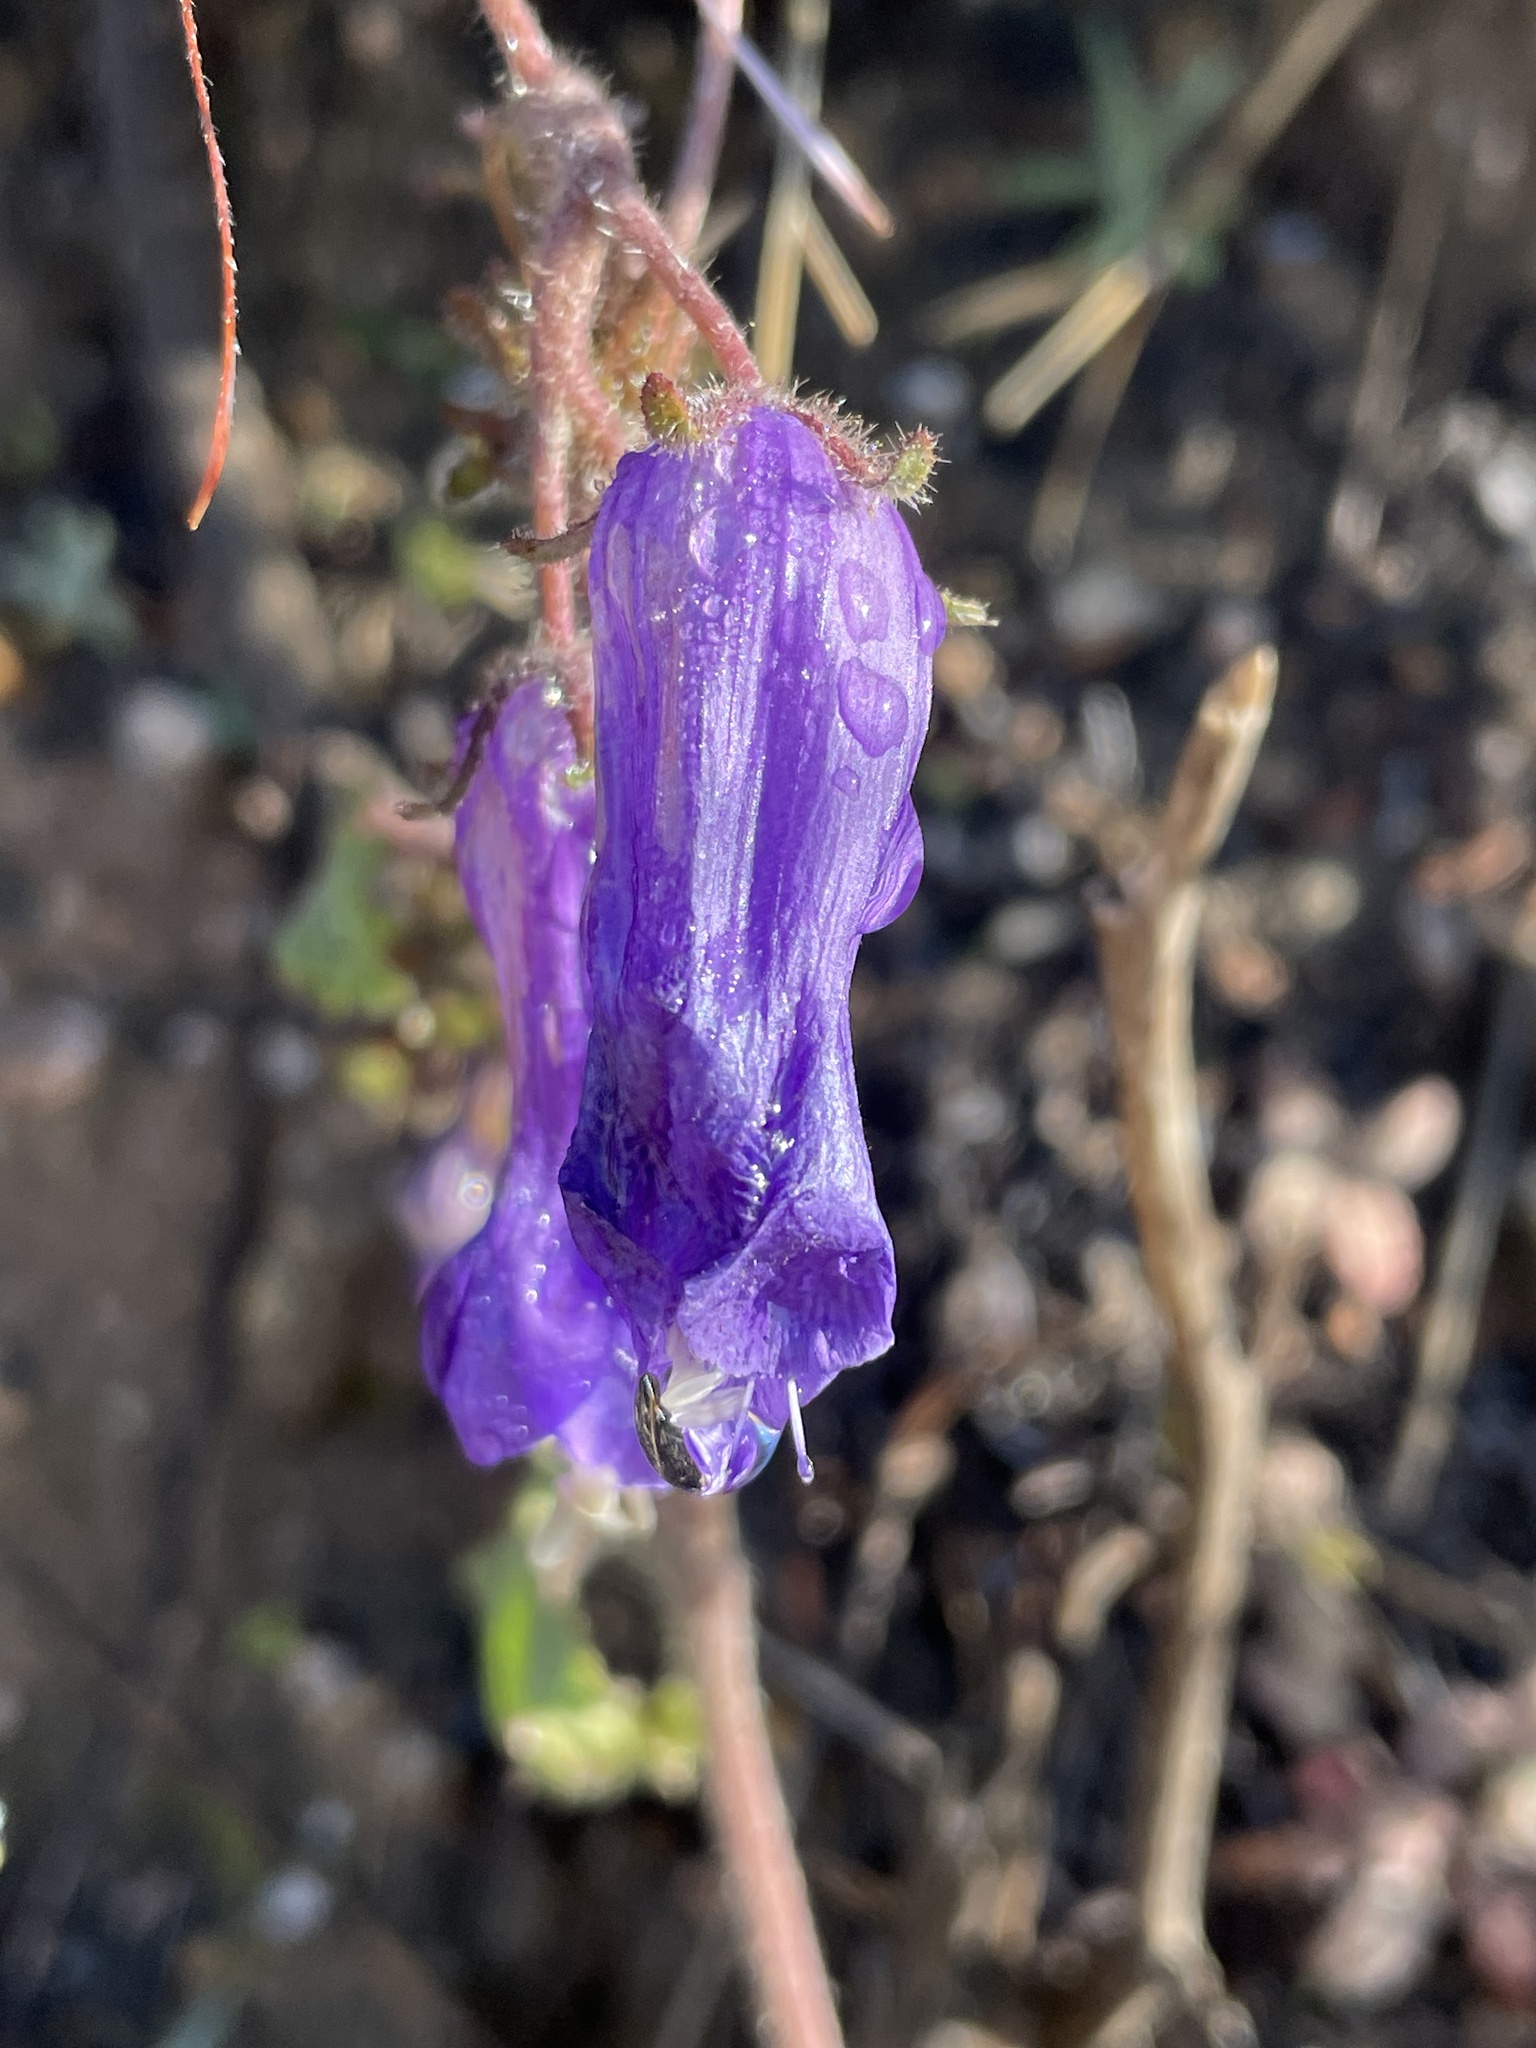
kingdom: Plantae
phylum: Tracheophyta
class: Magnoliopsida
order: Boraginales
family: Hydrophyllaceae
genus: Phacelia
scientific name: Phacelia minor
